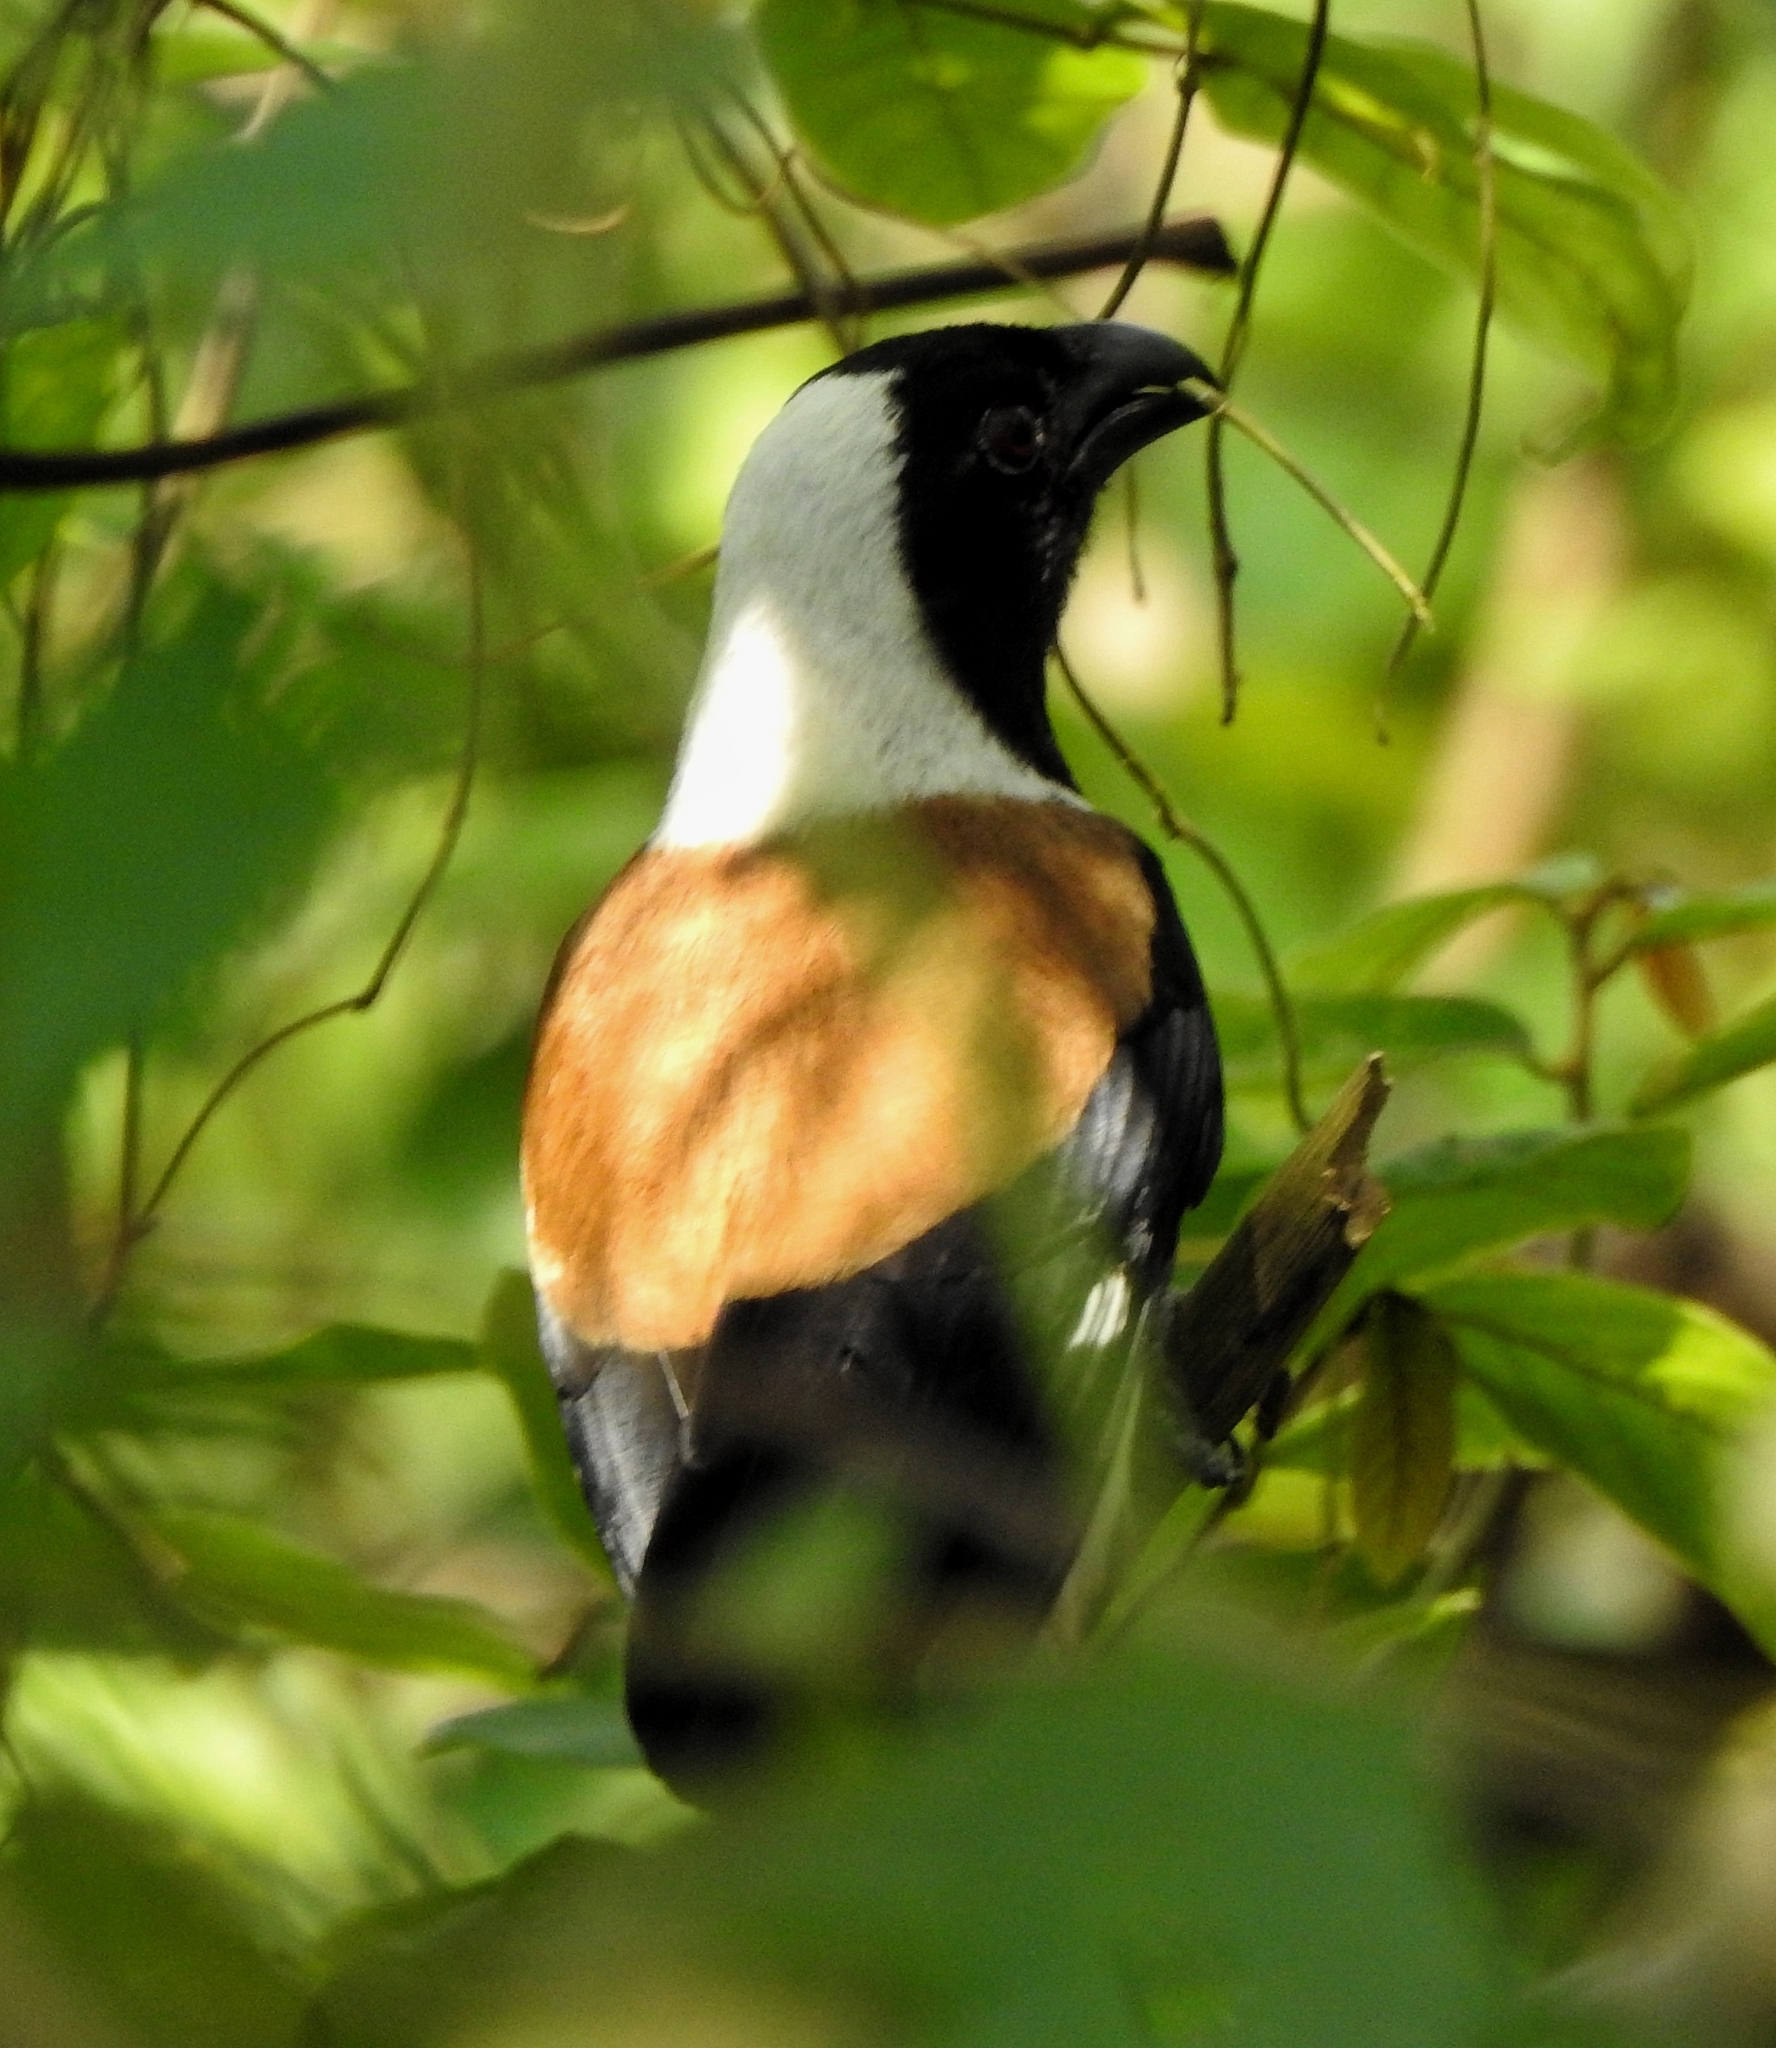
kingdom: Animalia
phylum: Chordata
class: Aves
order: Passeriformes
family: Corvidae
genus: Dendrocitta
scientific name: Dendrocitta leucogastra
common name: White-bellied treepie
